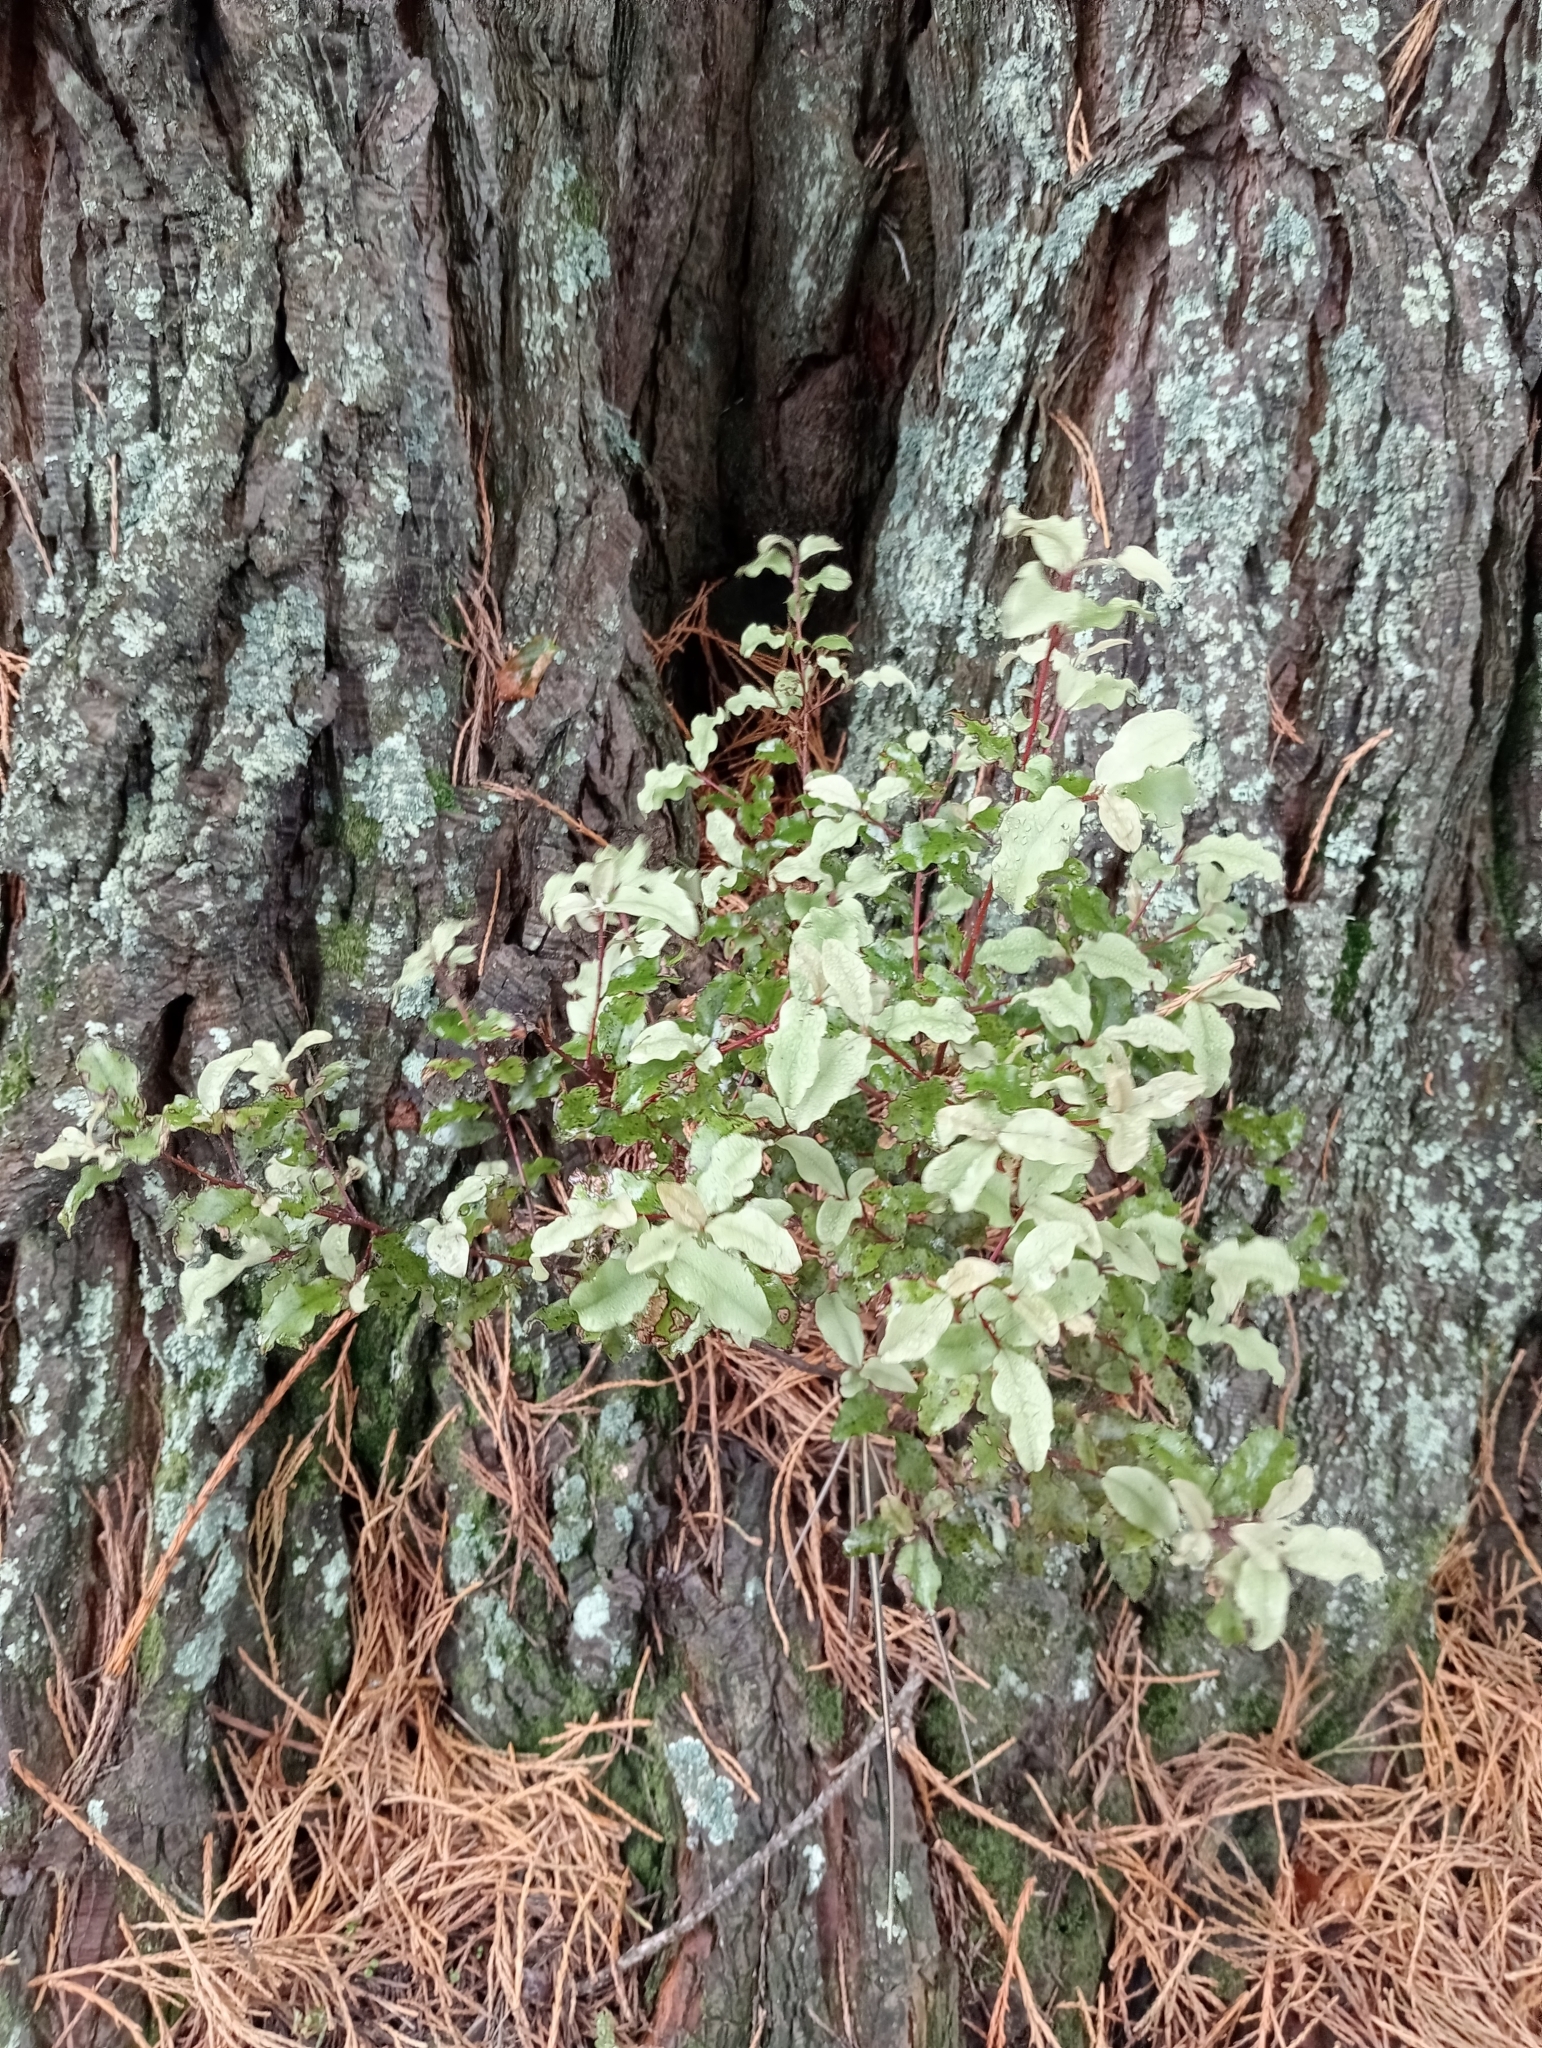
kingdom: Plantae
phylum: Tracheophyta
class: Magnoliopsida
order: Ericales
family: Primulaceae
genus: Myrsine
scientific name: Myrsine australis
